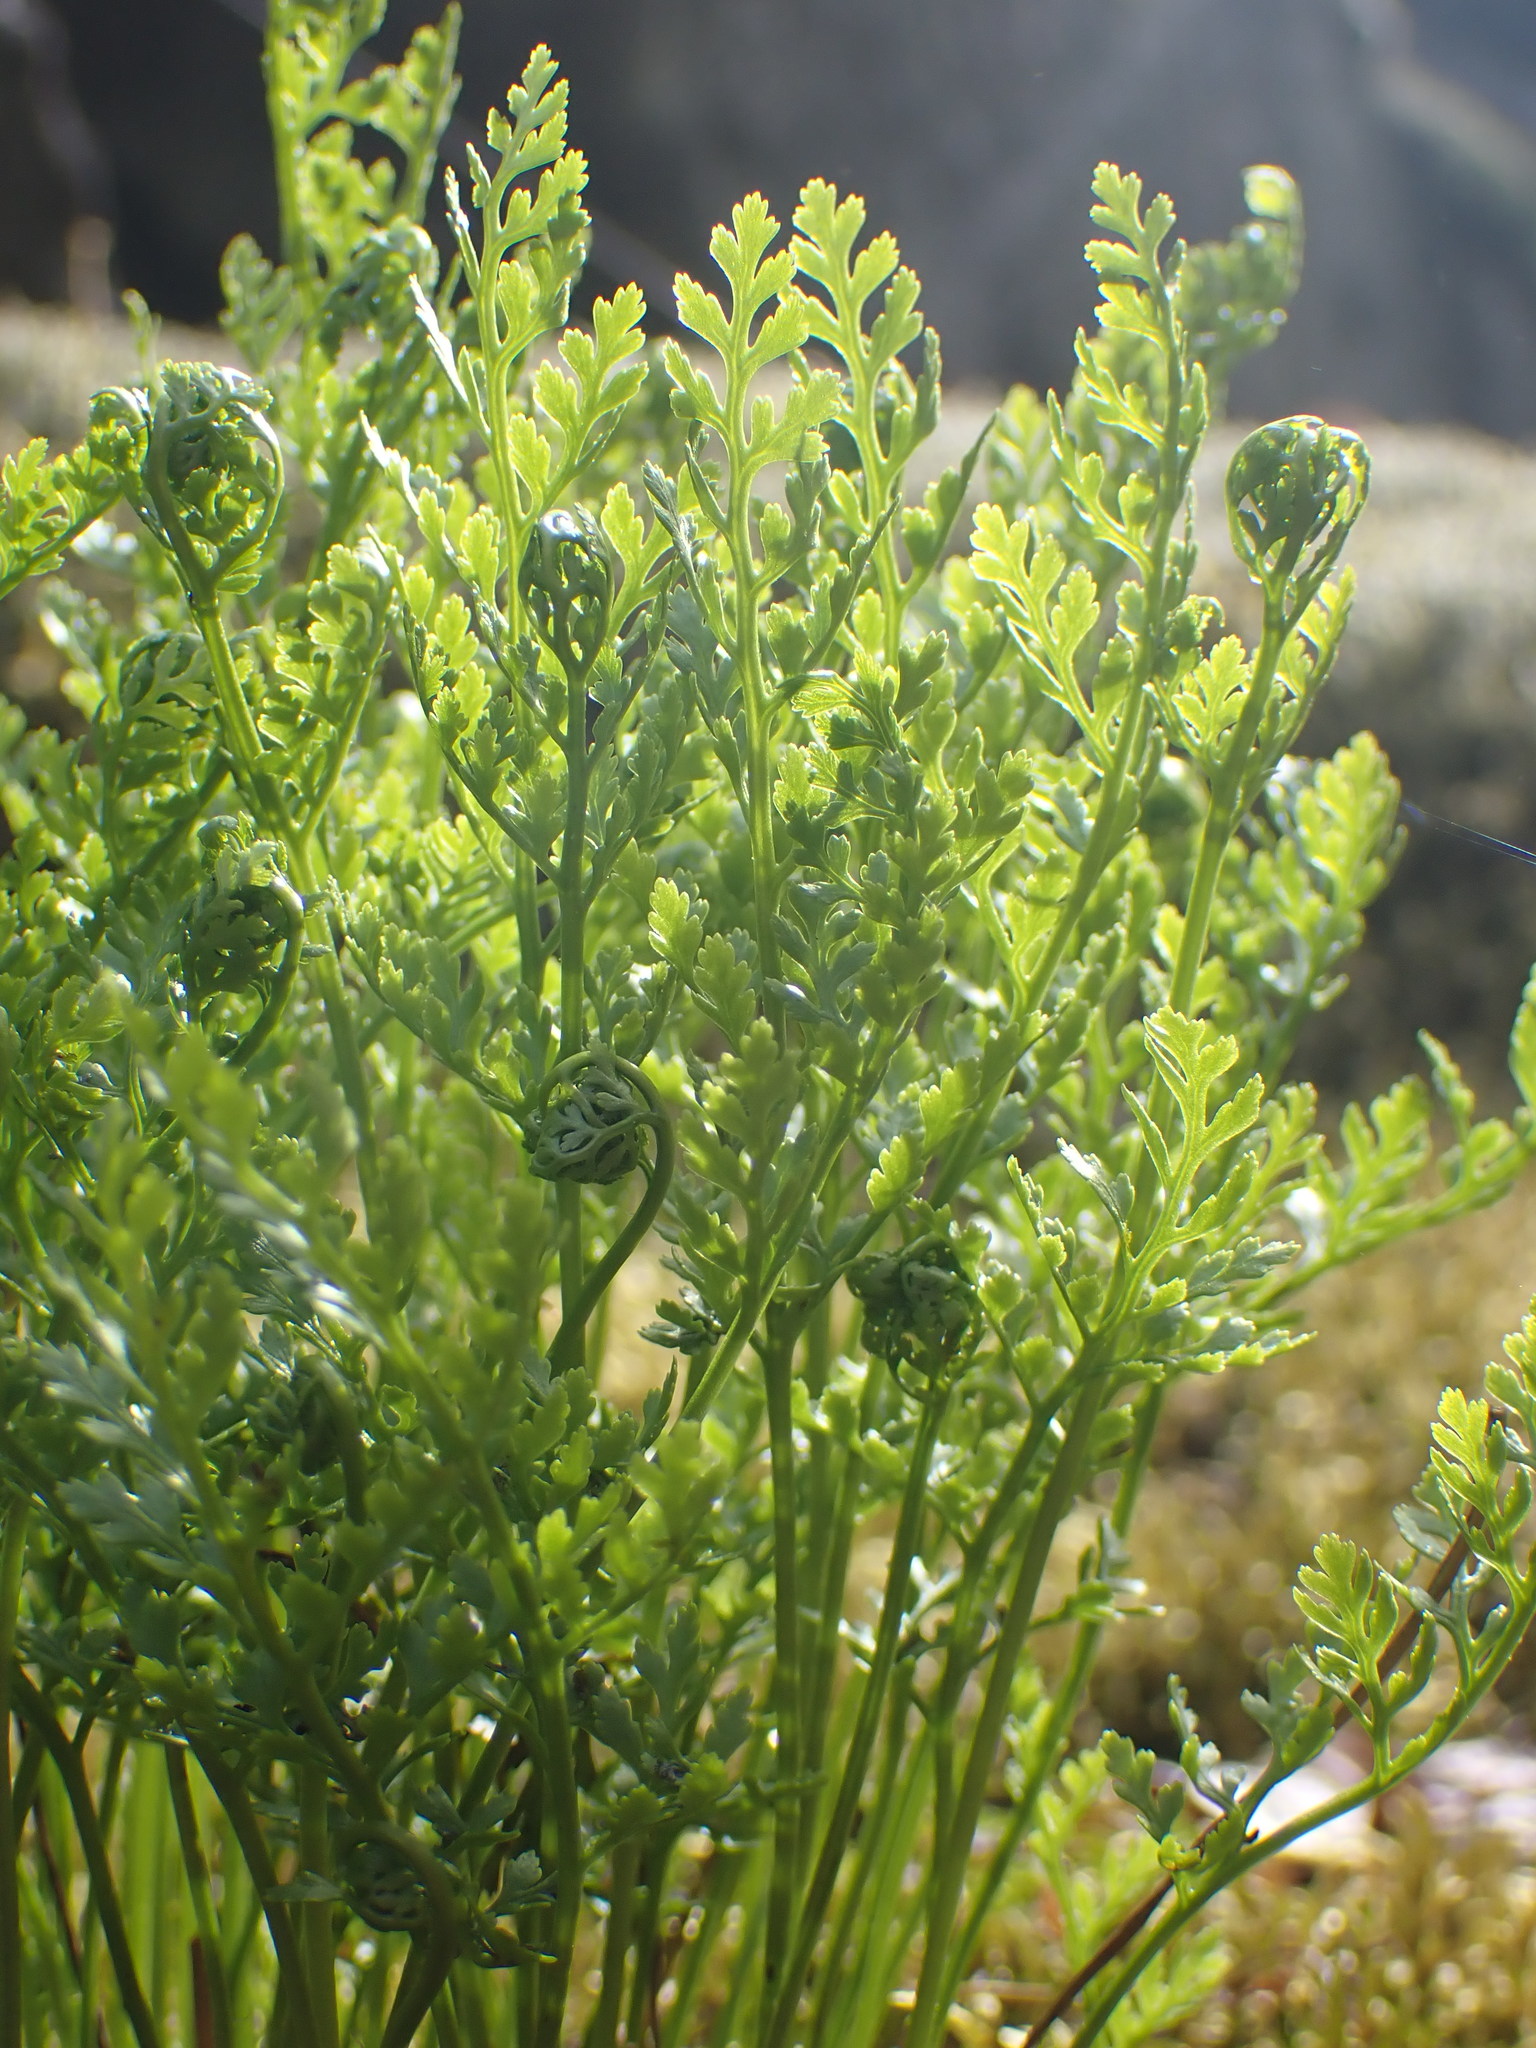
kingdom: Plantae
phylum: Tracheophyta
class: Polypodiopsida
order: Polypodiales
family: Pteridaceae
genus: Cryptogramma
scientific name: Cryptogramma acrostichoides
